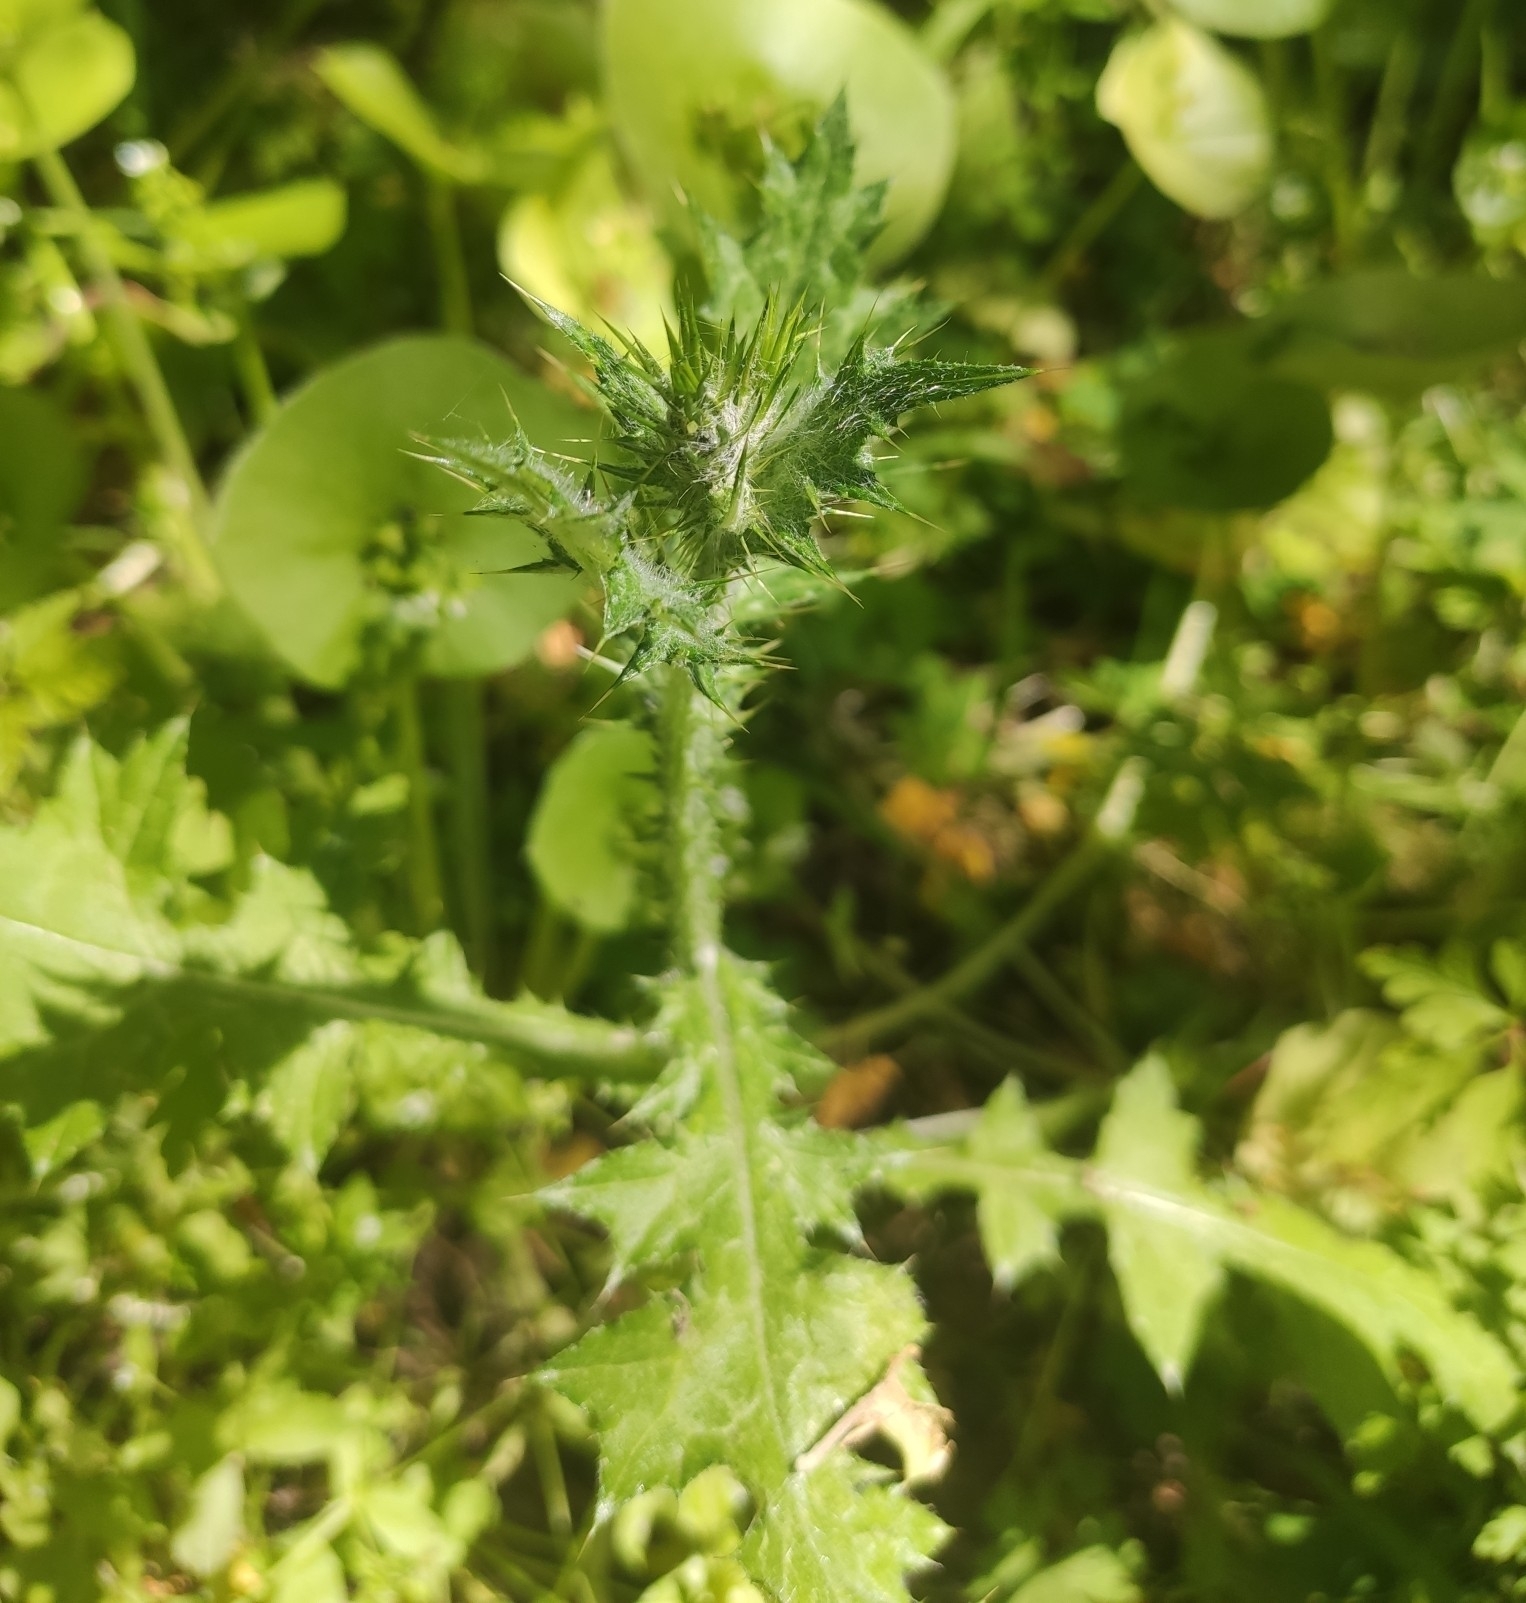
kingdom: Plantae
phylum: Tracheophyta
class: Magnoliopsida
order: Asterales
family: Asteraceae
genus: Carduus
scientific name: Carduus pycnocephalus
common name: Plymouth thistle
